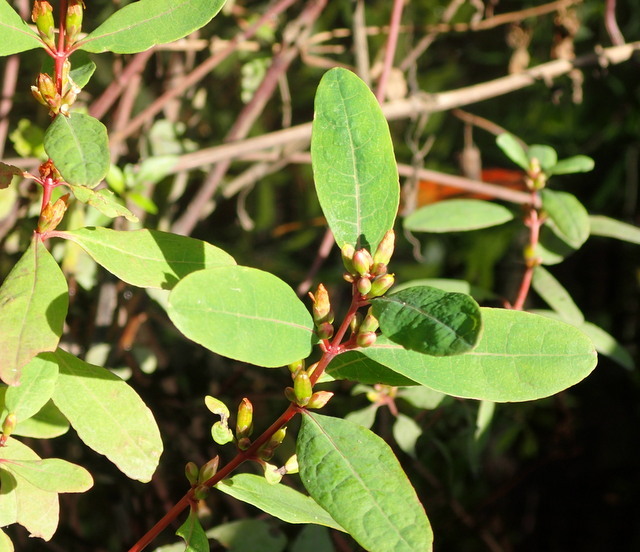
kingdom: Plantae
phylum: Tracheophyta
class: Magnoliopsida
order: Malpighiales
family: Hypericaceae
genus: Triadenum
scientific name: Triadenum walteri
